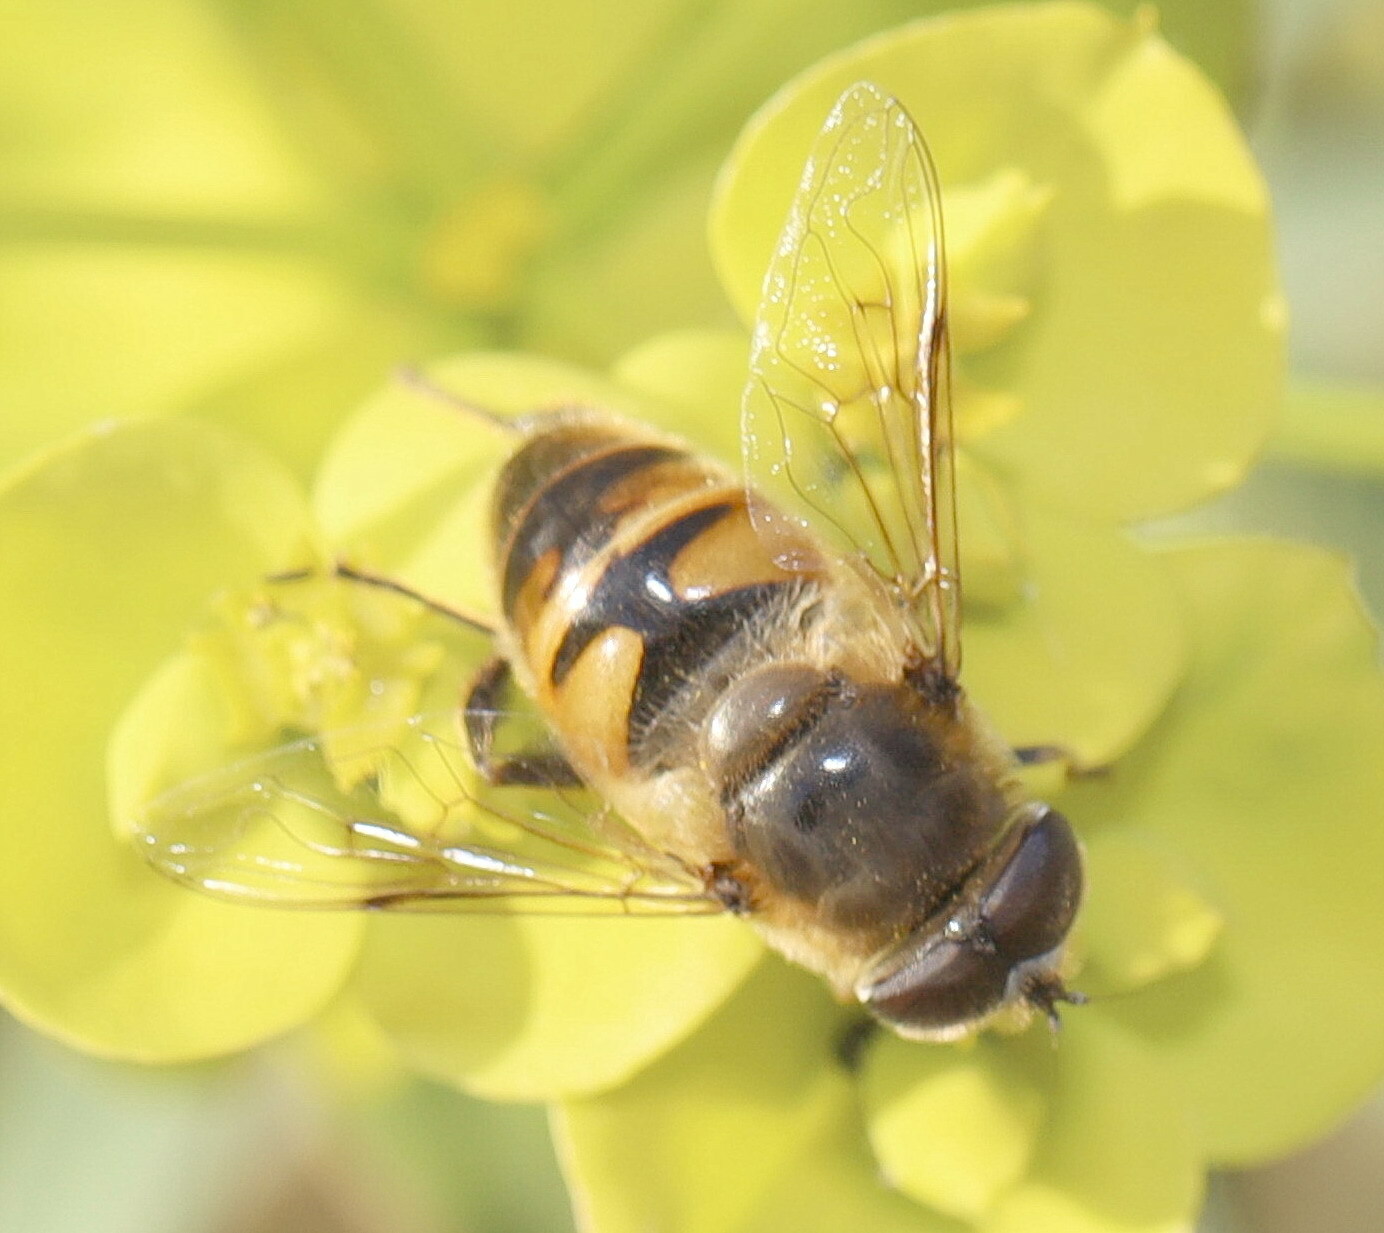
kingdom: Animalia
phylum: Arthropoda
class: Insecta
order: Diptera
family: Syrphidae
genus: Eristalis
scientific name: Eristalis tenax
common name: Drone fly
